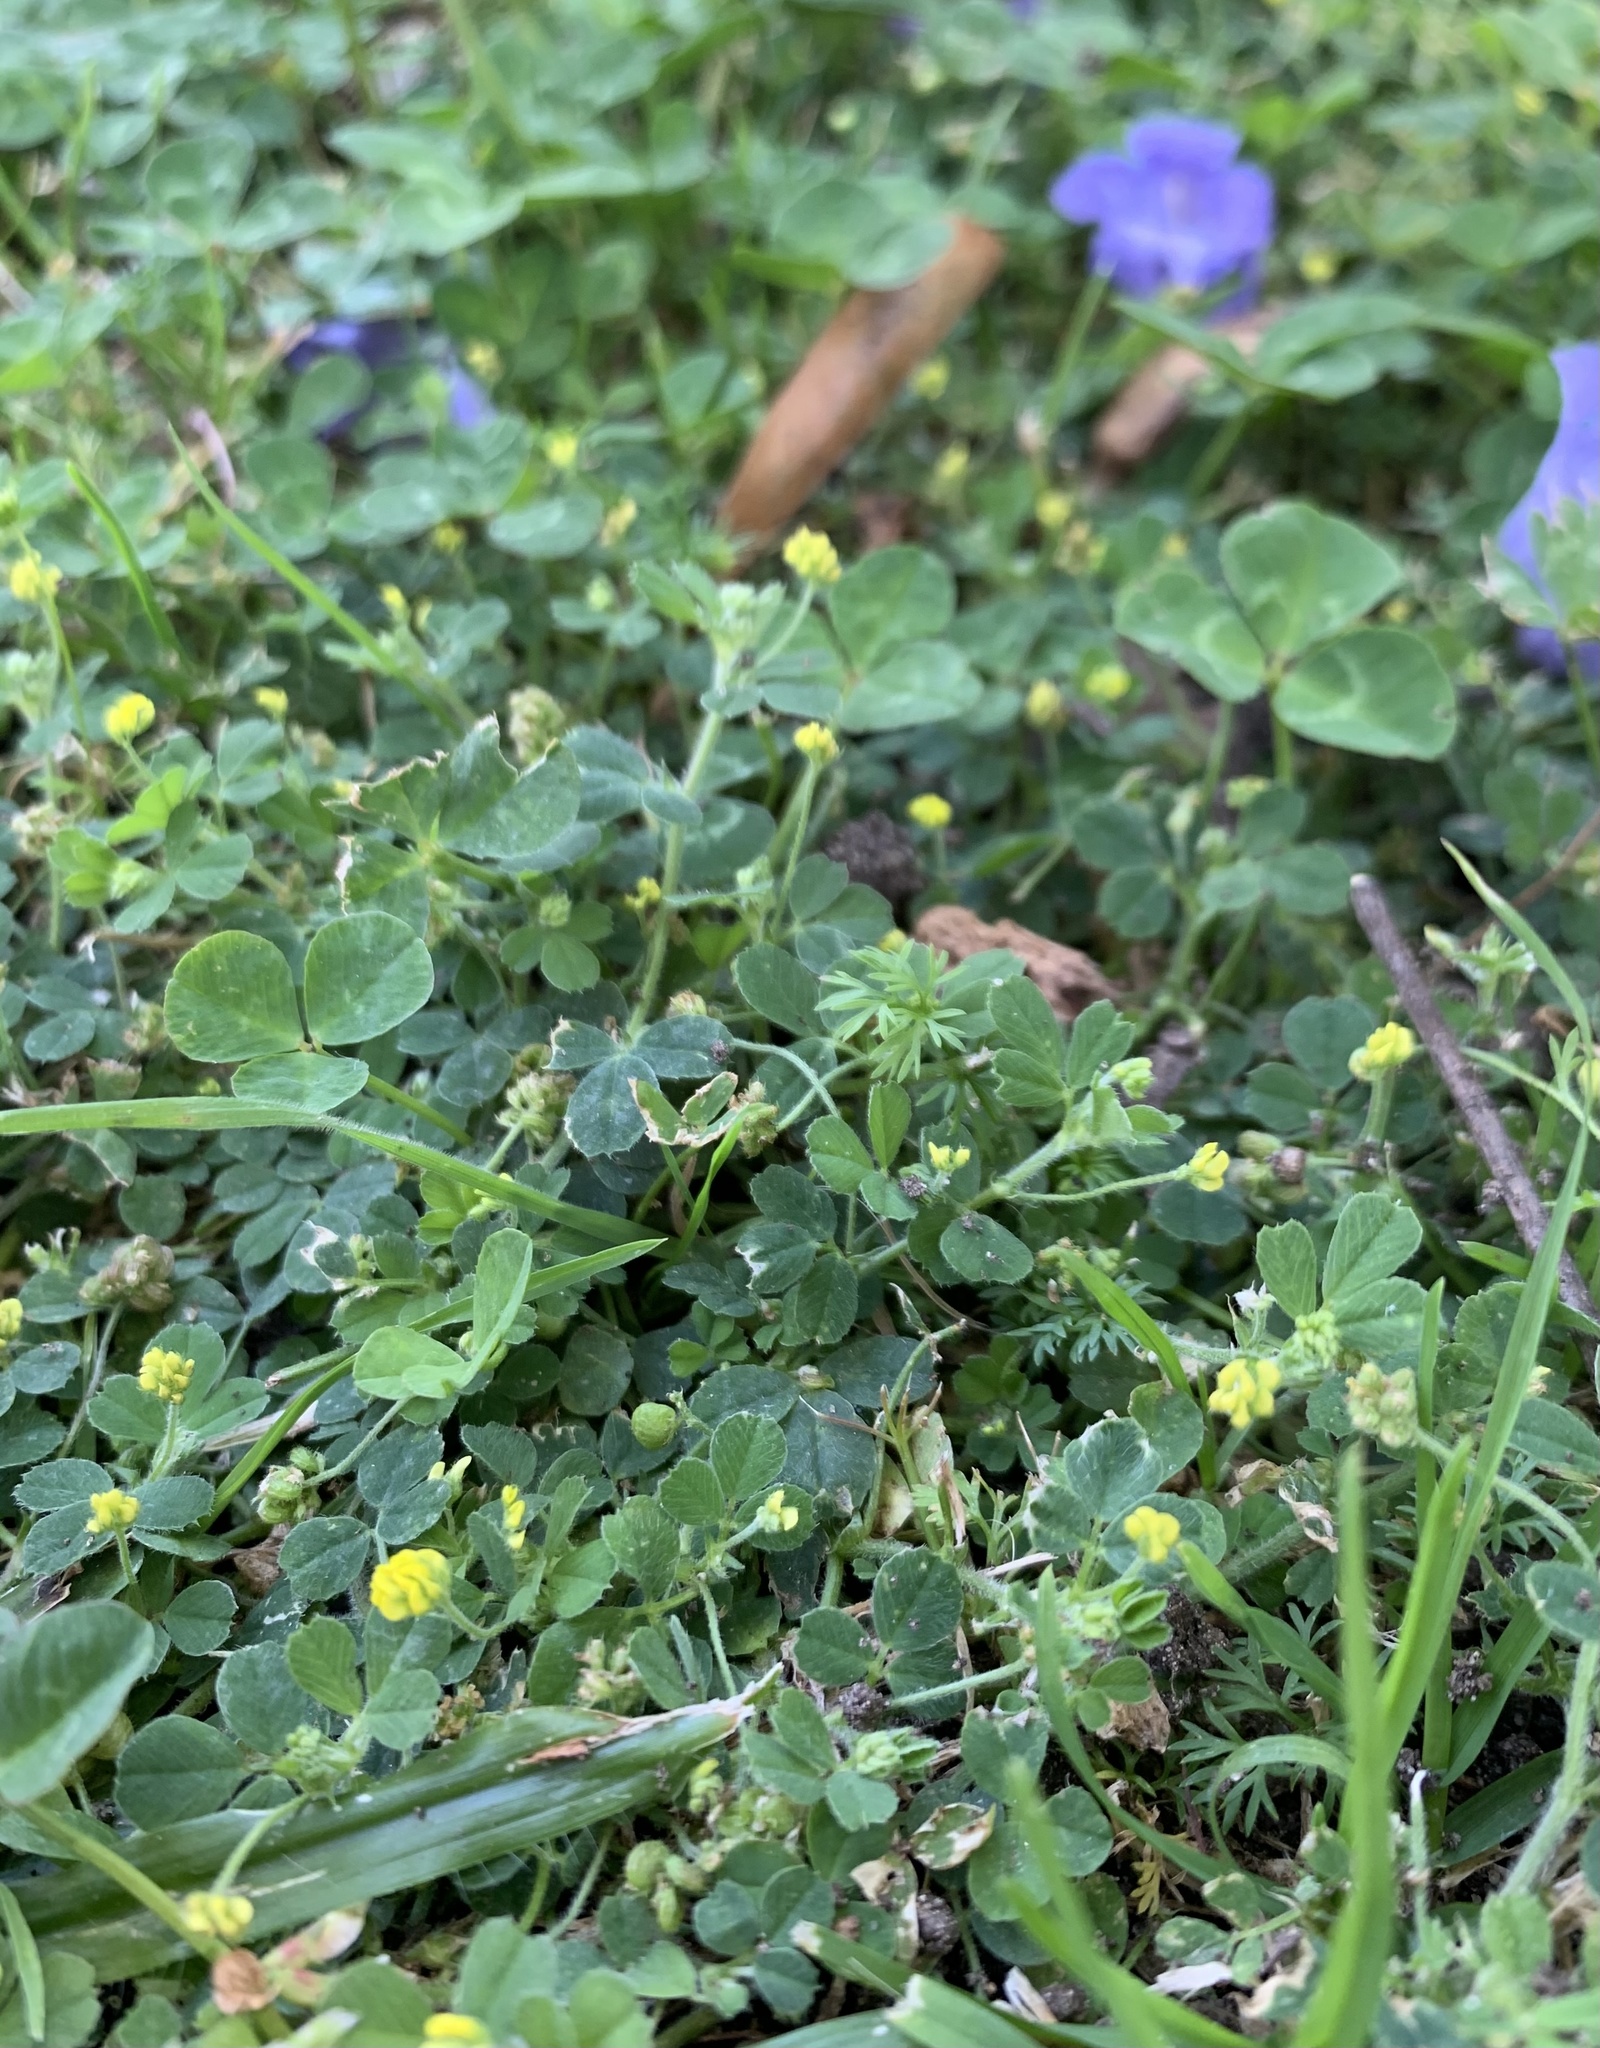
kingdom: Plantae
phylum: Tracheophyta
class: Magnoliopsida
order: Fabales
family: Fabaceae
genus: Medicago
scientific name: Medicago lupulina
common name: Black medick
